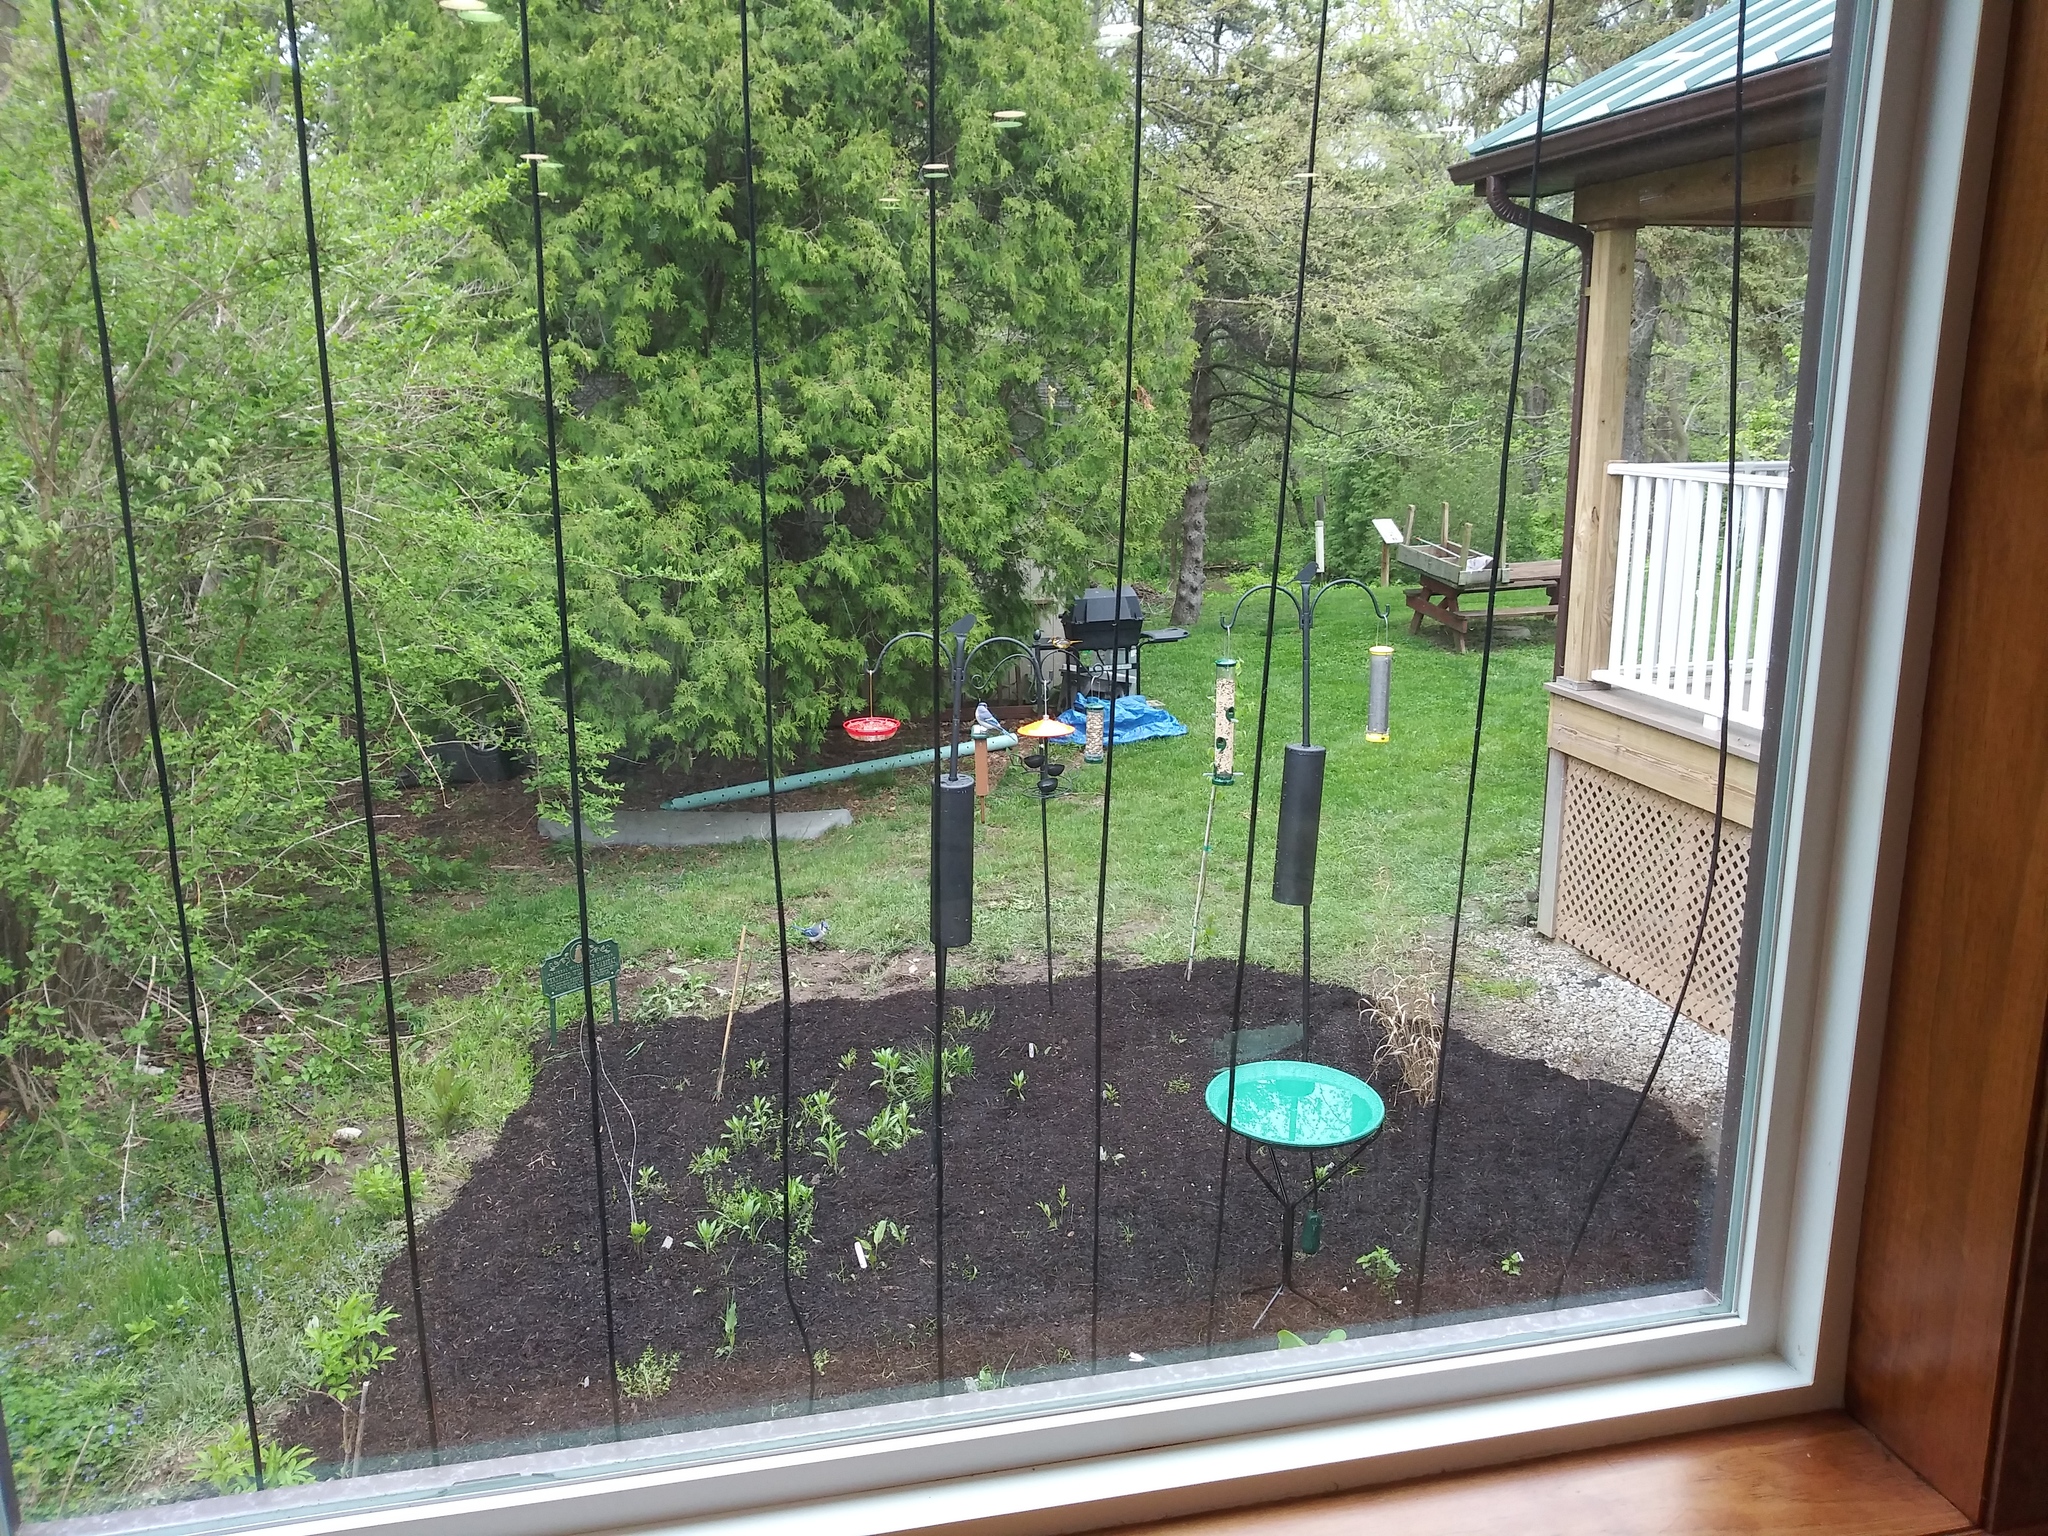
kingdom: Animalia
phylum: Chordata
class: Aves
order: Passeriformes
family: Corvidae
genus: Cyanocitta
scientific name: Cyanocitta cristata
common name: Blue jay
